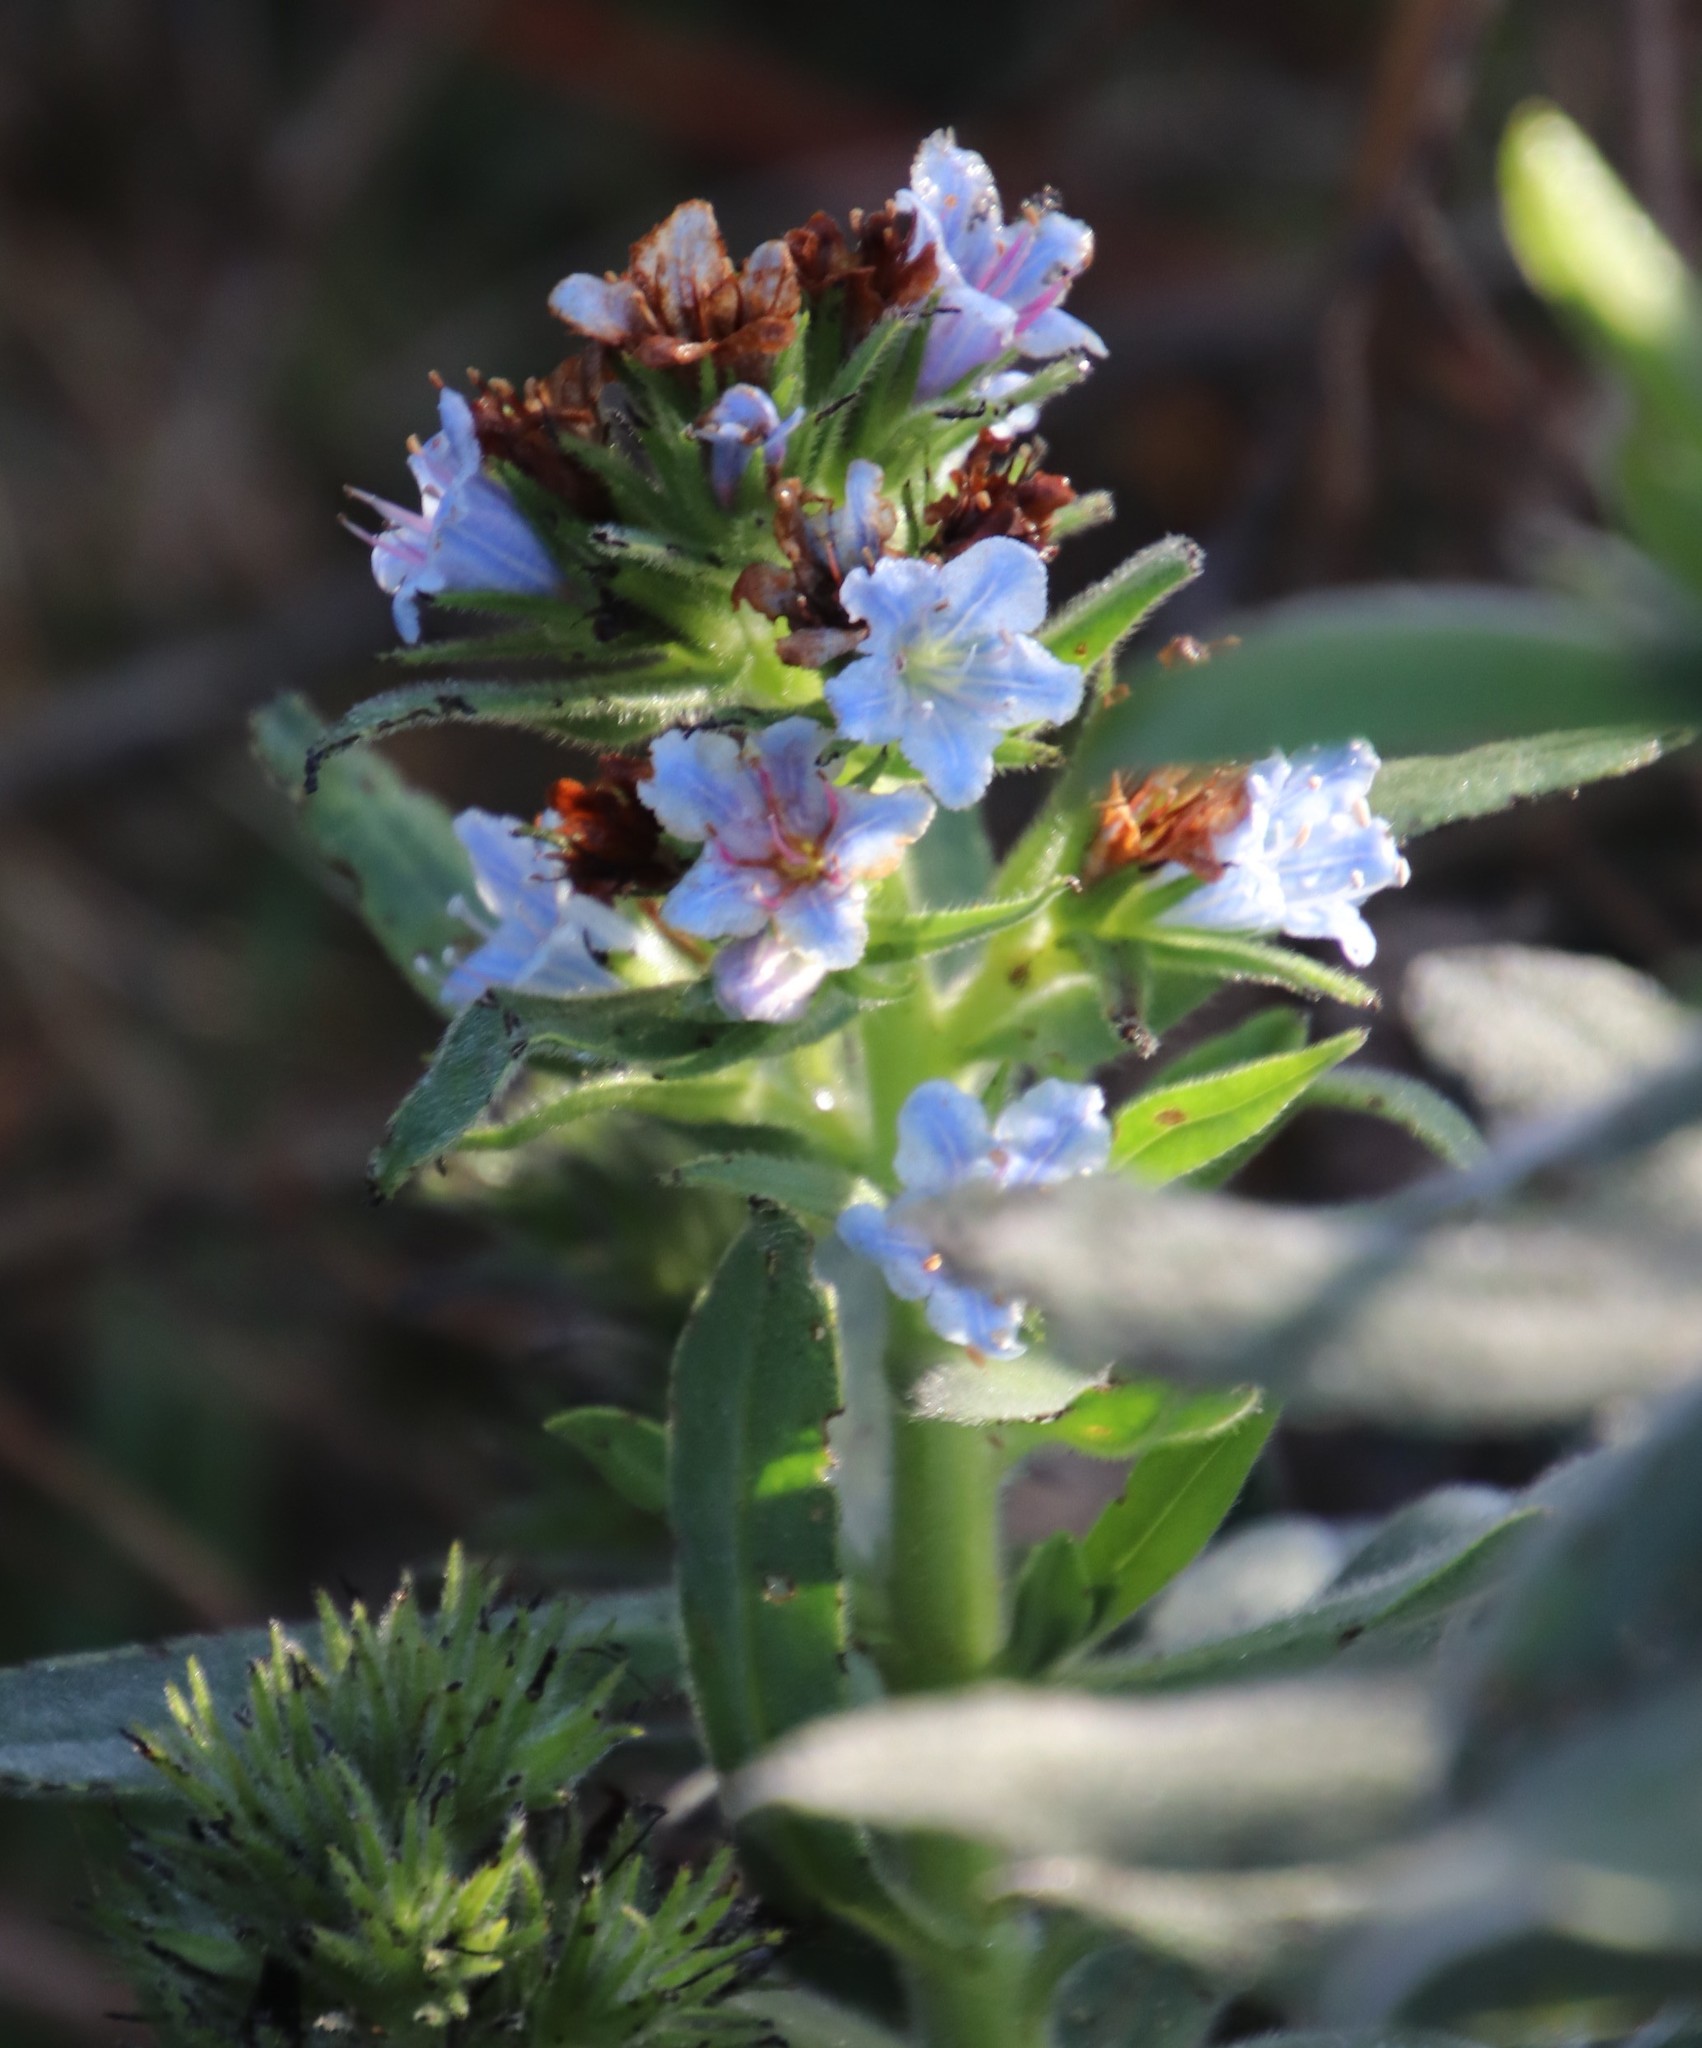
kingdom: Plantae
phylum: Tracheophyta
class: Magnoliopsida
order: Boraginales
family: Boraginaceae
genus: Lobostemon
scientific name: Lobostemon montanus
